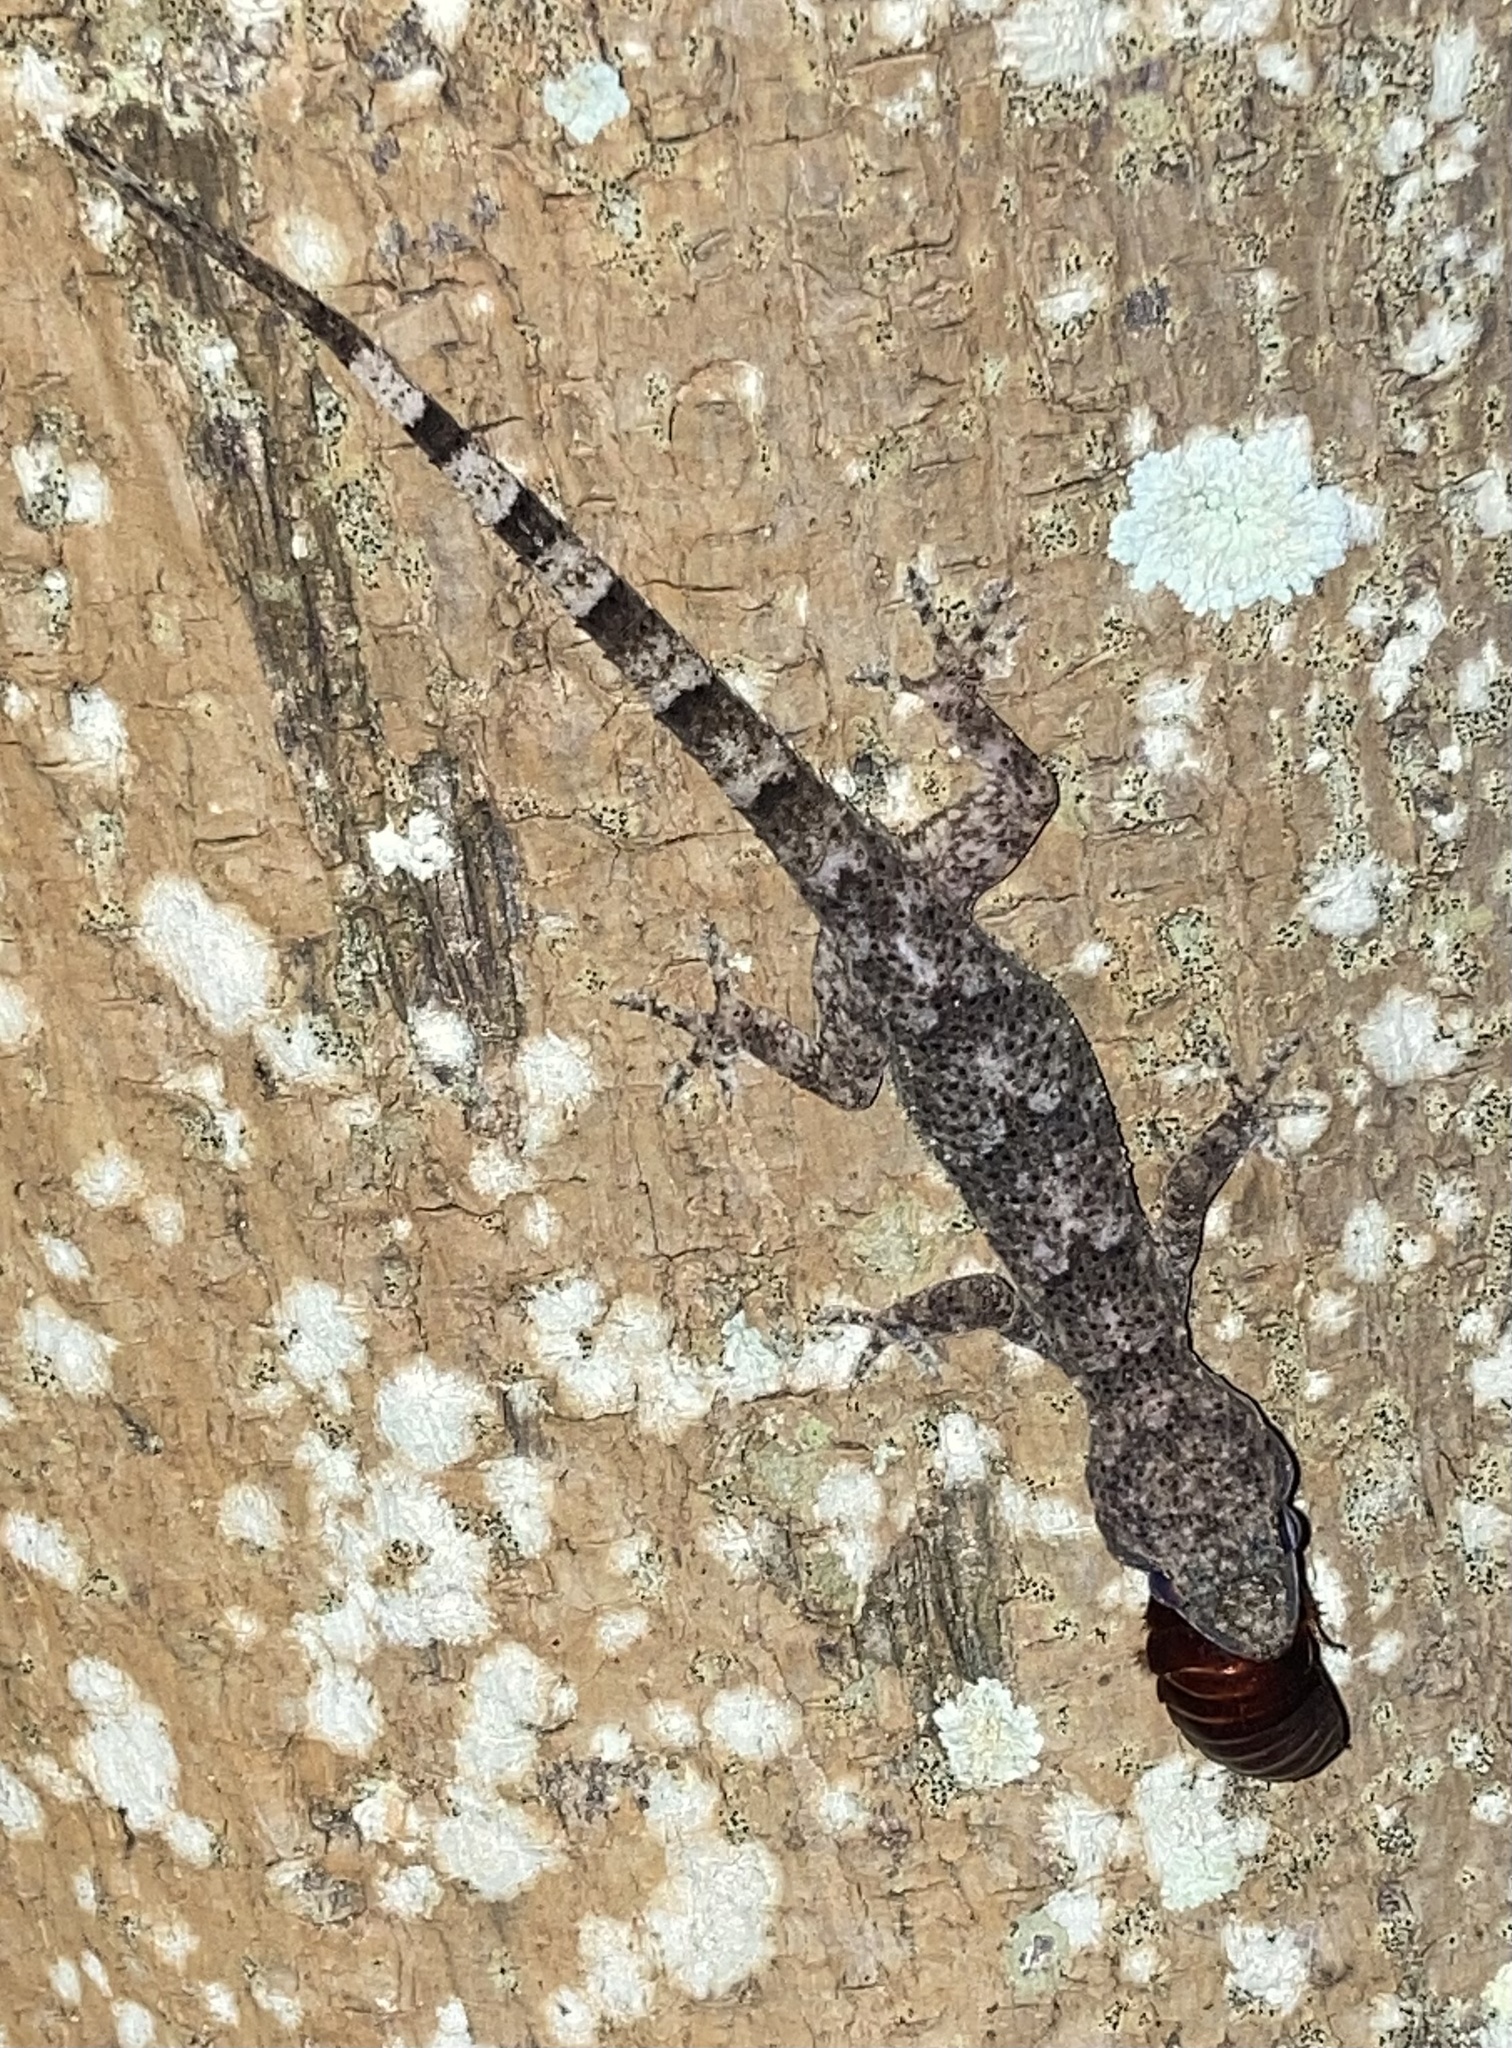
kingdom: Animalia
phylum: Chordata
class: Squamata
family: Gekkonidae
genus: Hemidactylus
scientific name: Hemidactylus mabouia
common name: House gecko
